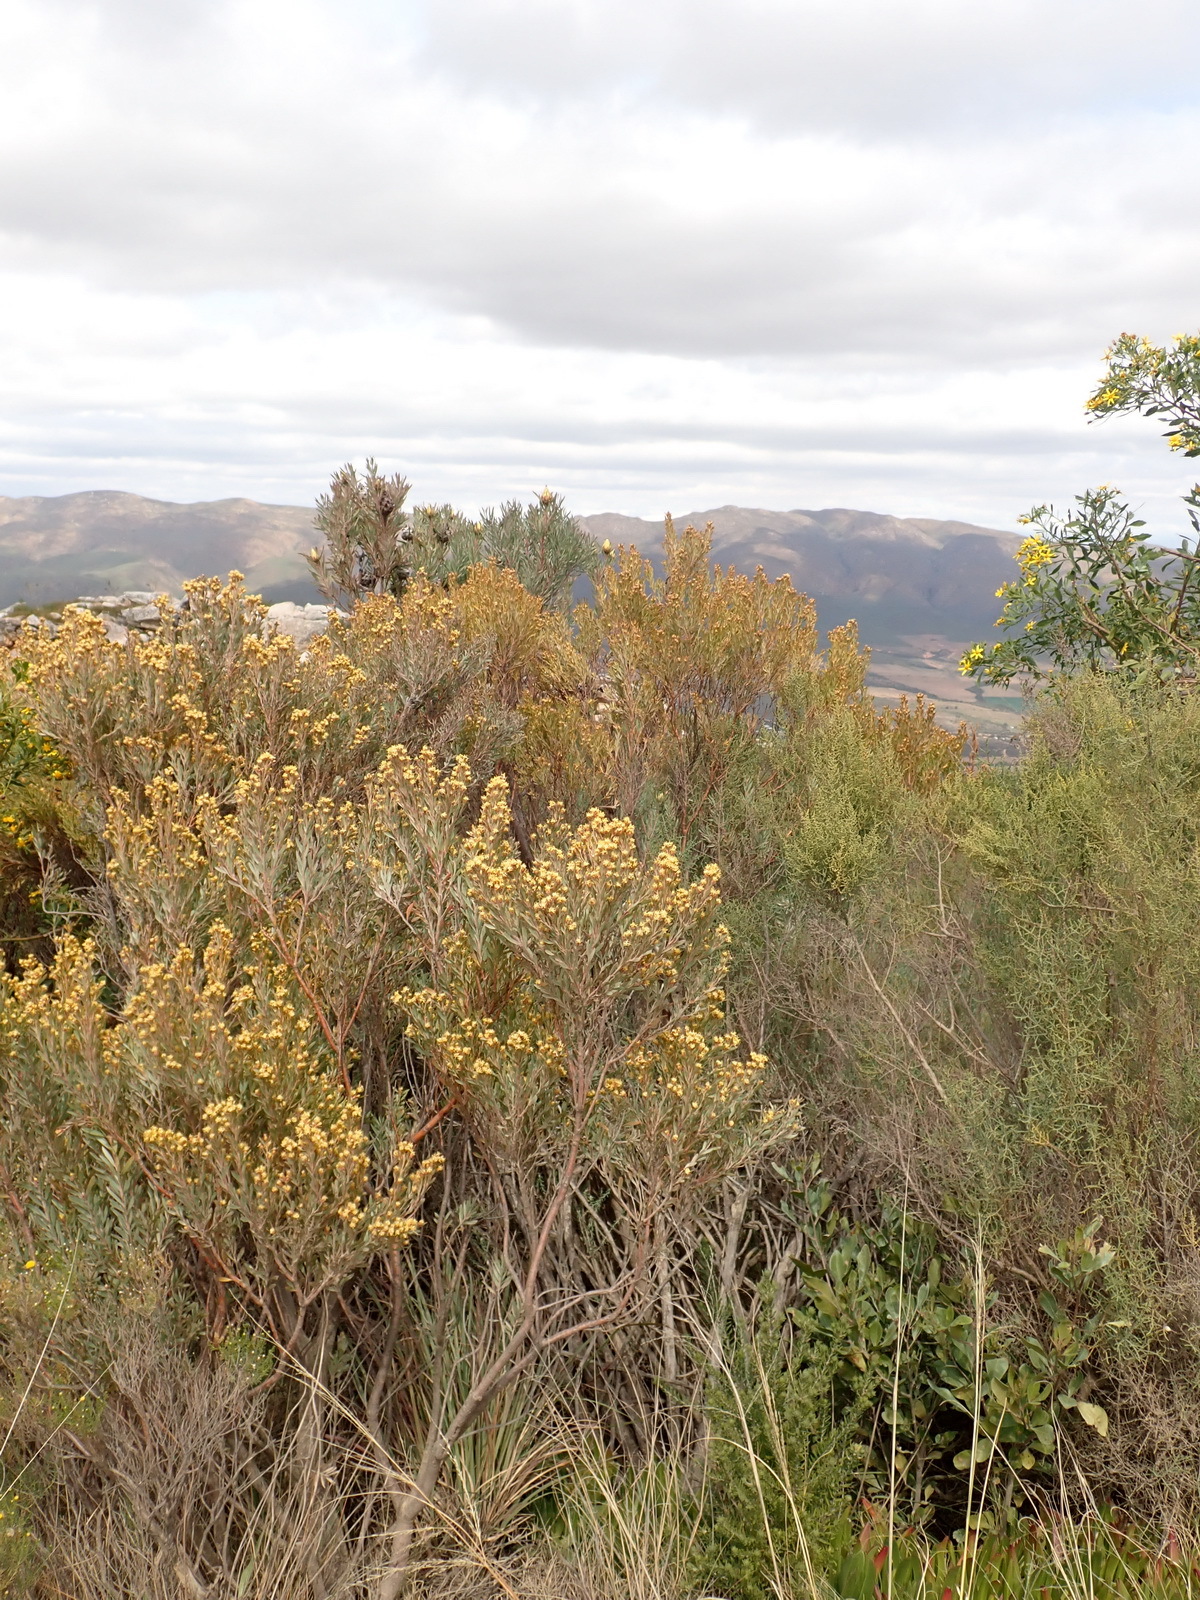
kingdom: Plantae
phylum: Tracheophyta
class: Magnoliopsida
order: Proteales
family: Proteaceae
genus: Leucadendron
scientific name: Leucadendron rubrum
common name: Spinning top
